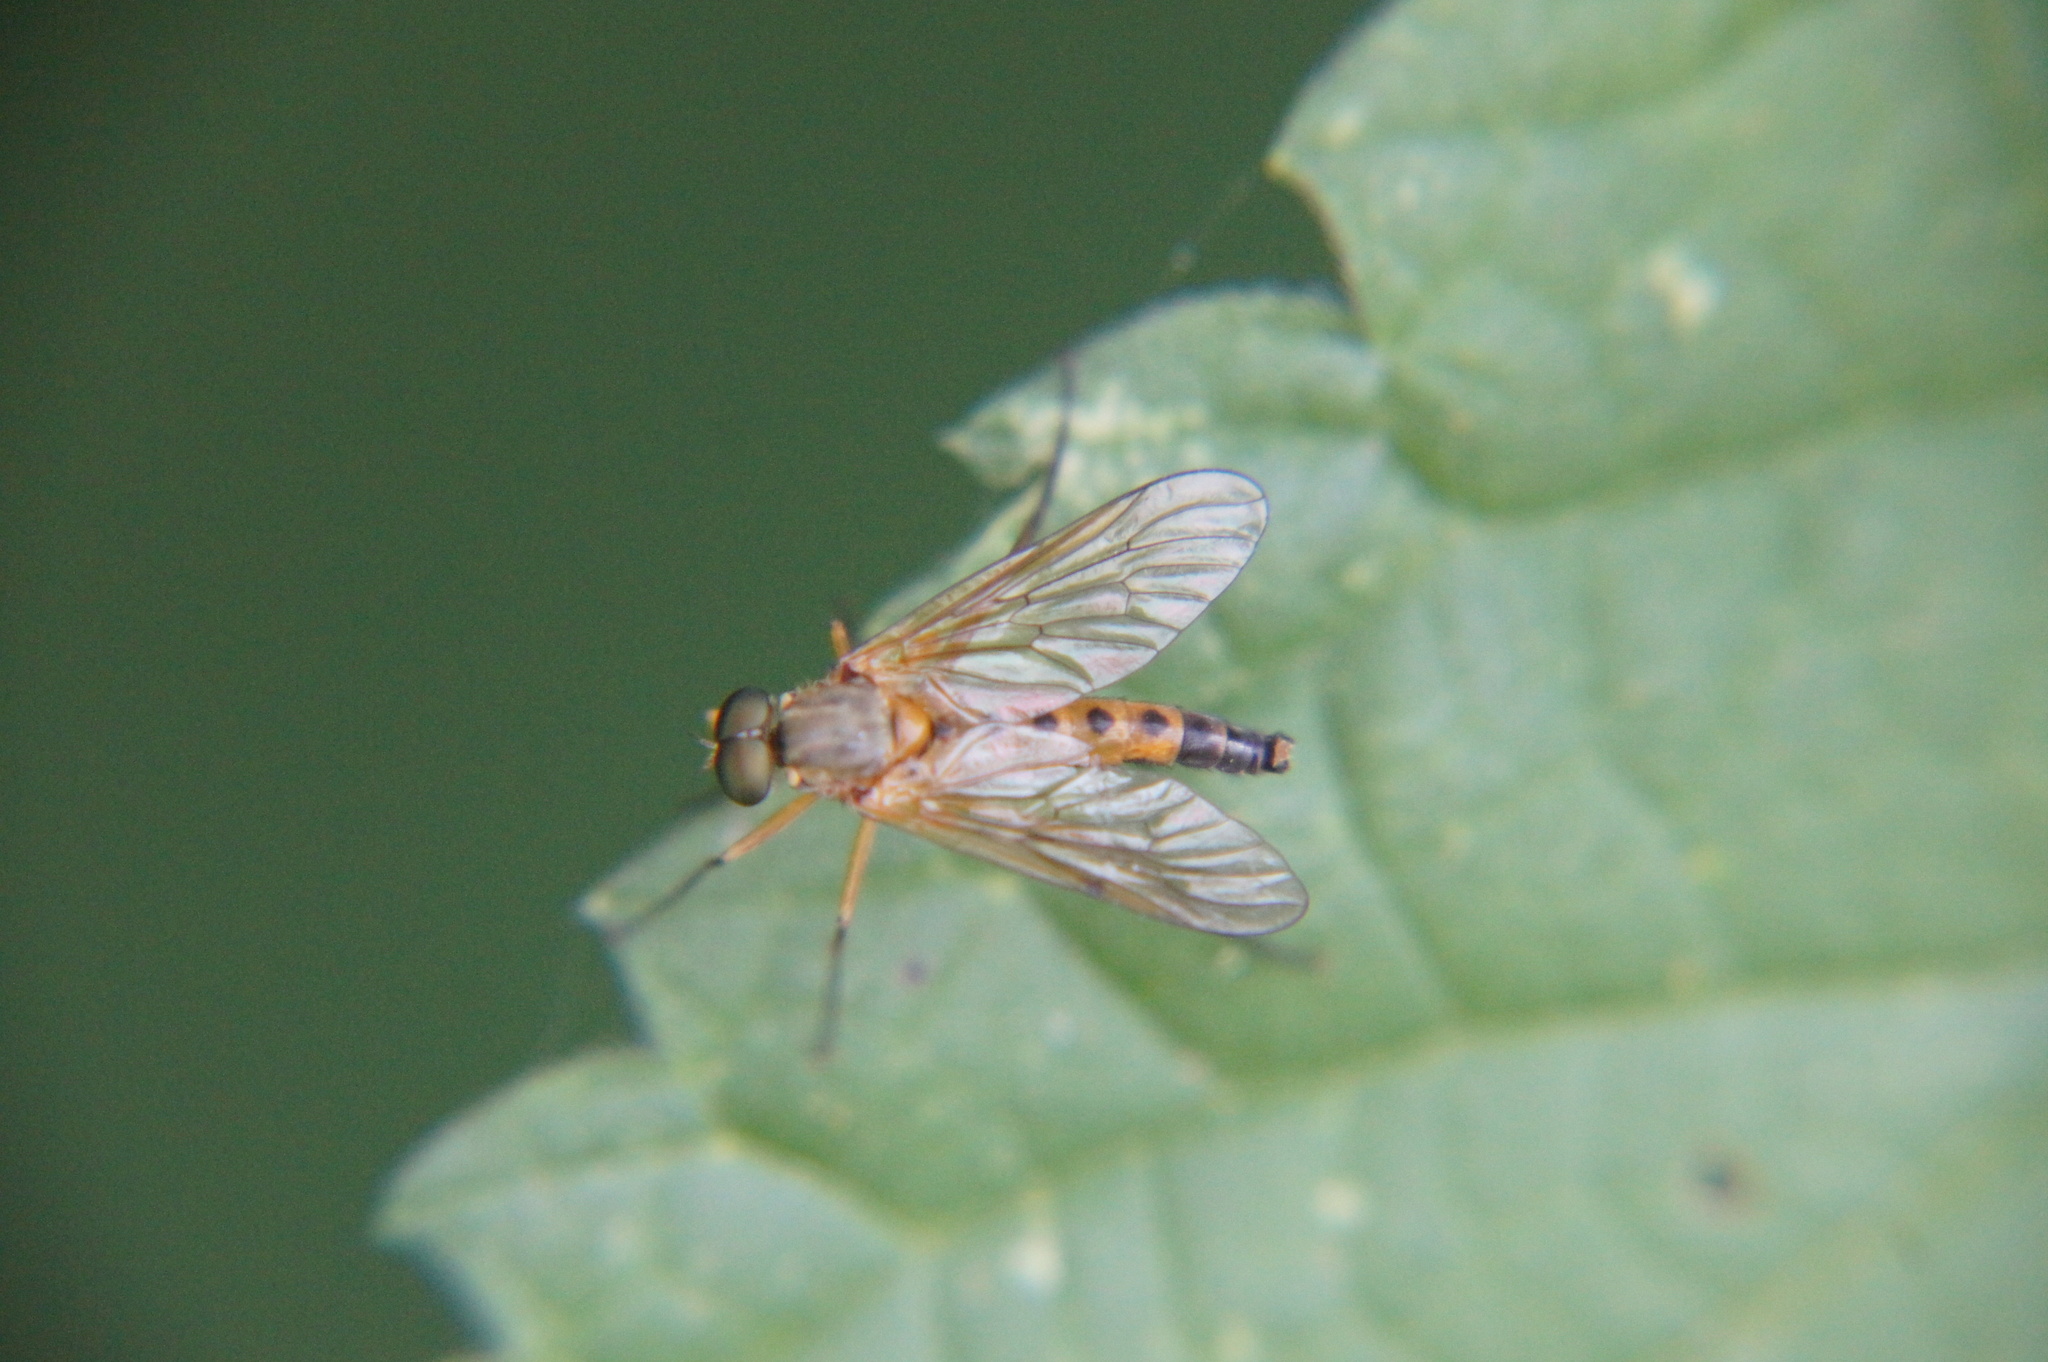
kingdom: Animalia
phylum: Arthropoda
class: Insecta
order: Diptera
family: Rhagionidae
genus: Rhagio
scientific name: Rhagio tringaria
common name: Marsh snipefly
